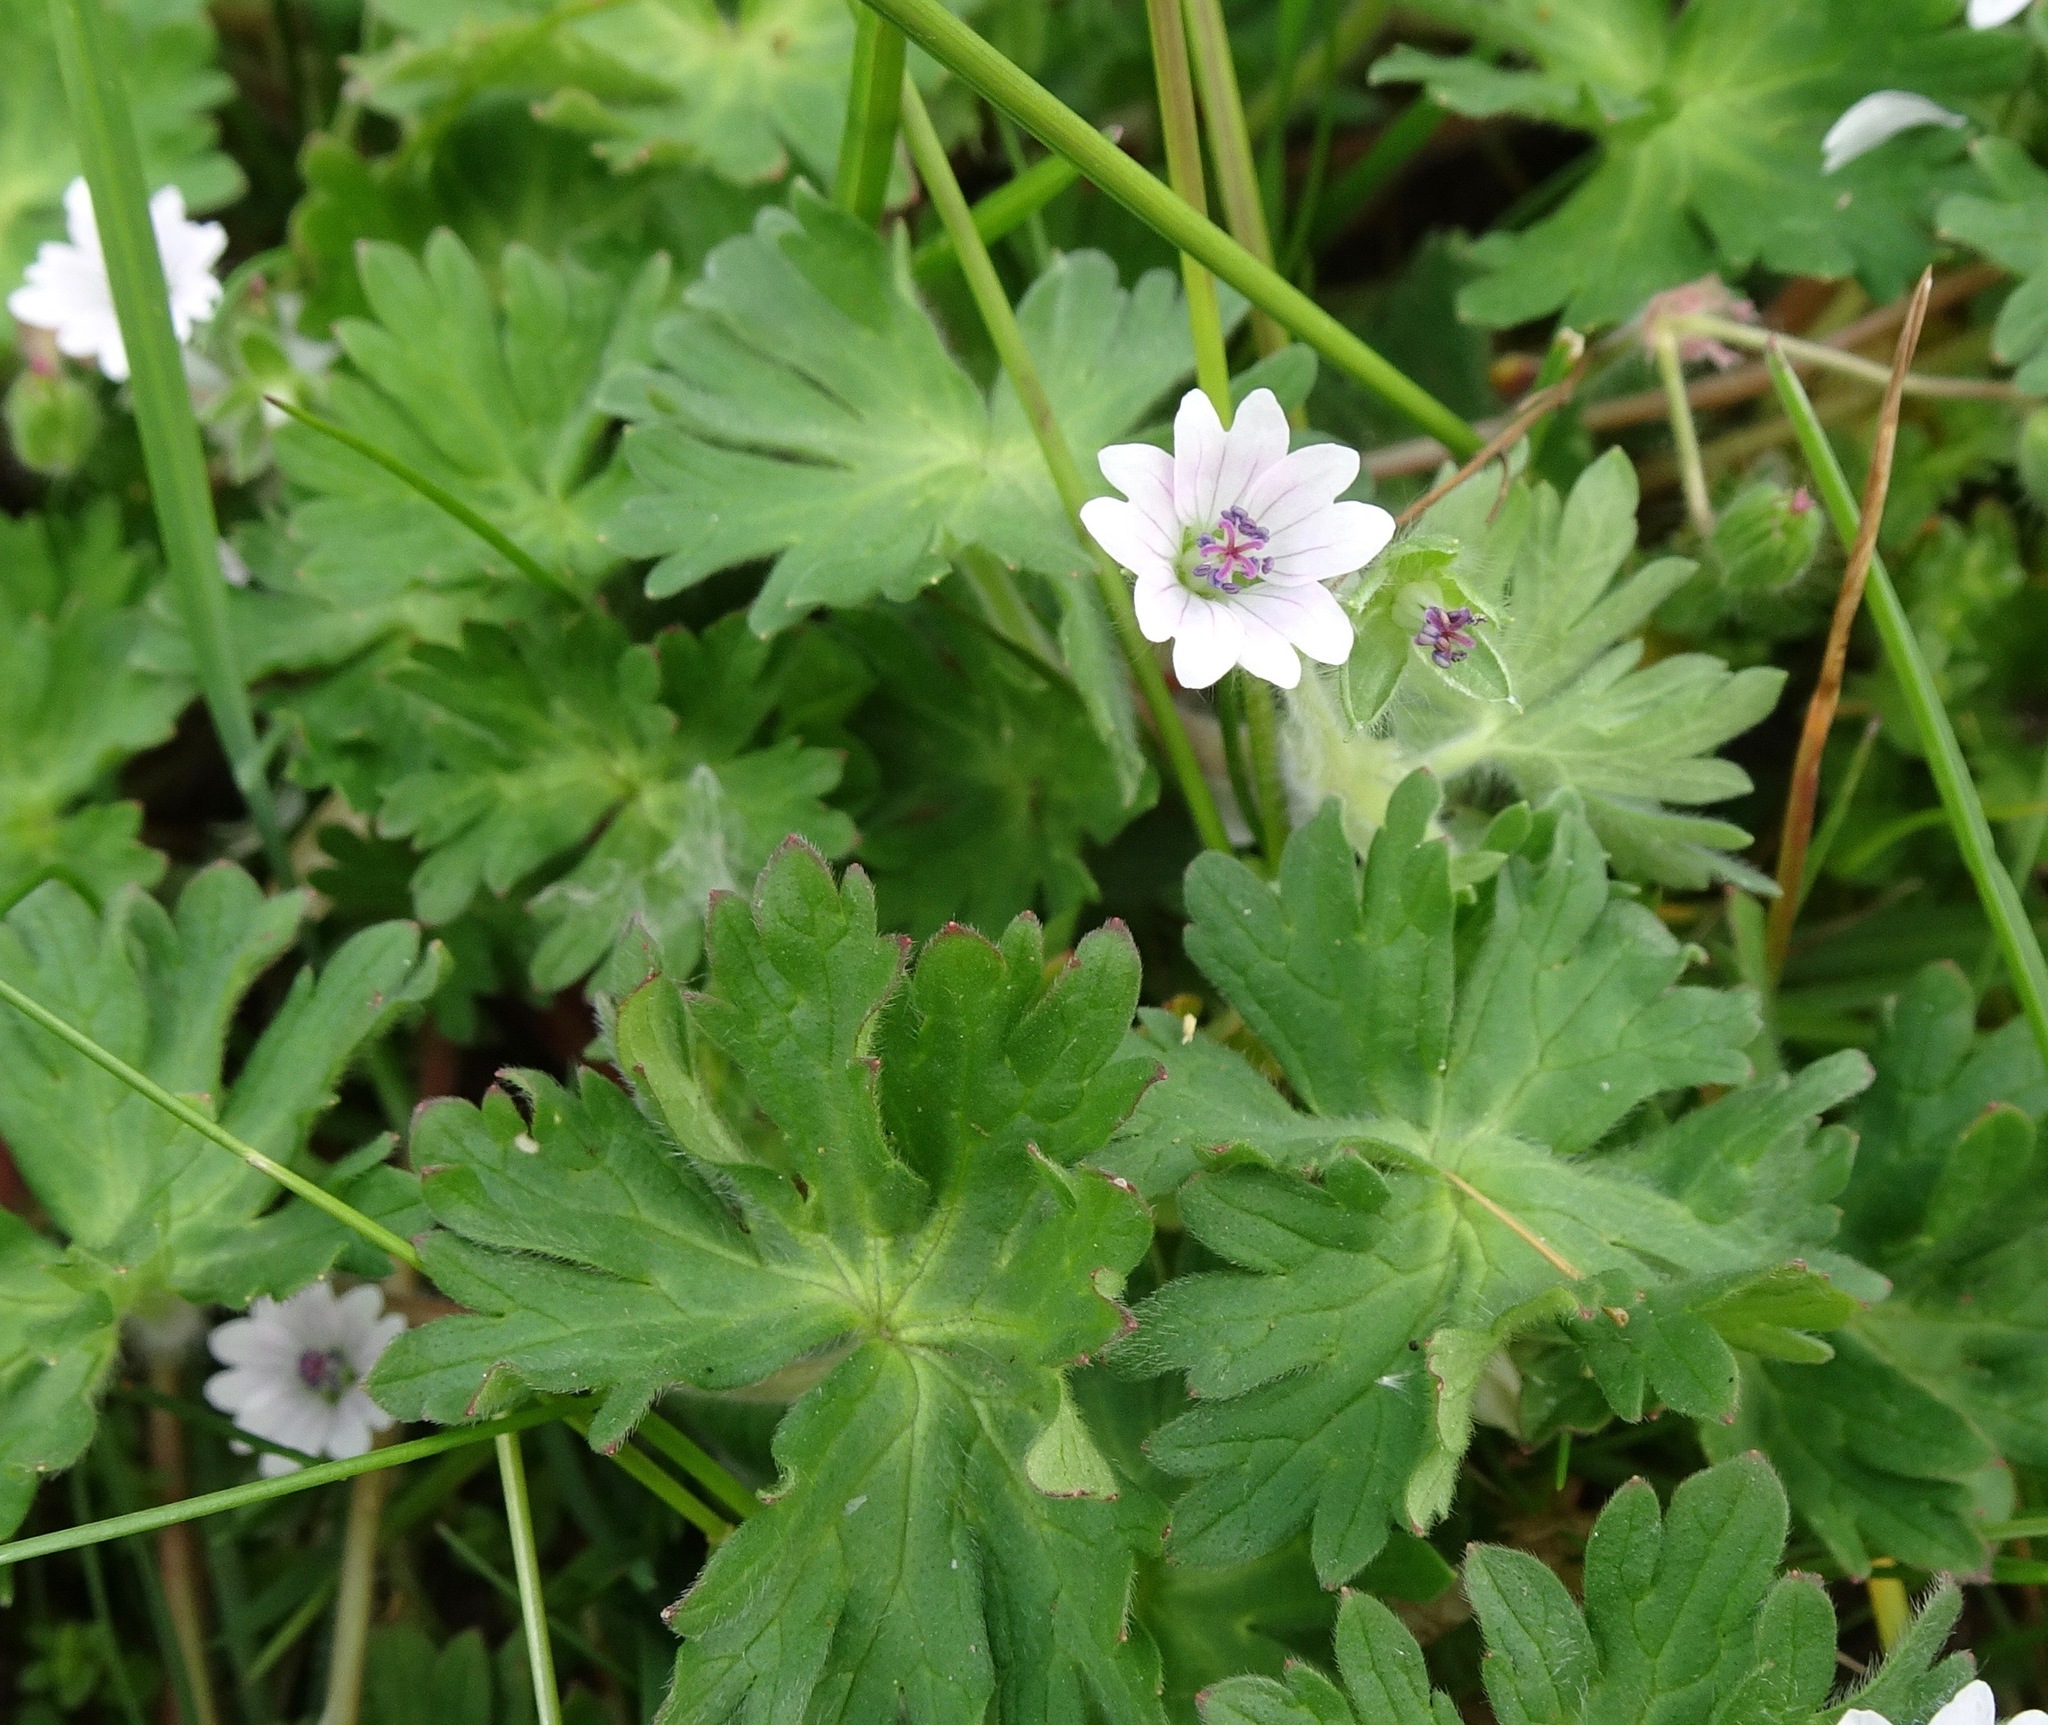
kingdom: Plantae
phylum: Tracheophyta
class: Magnoliopsida
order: Geraniales
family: Geraniaceae
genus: Geranium
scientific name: Geranium molle
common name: Dove's-foot crane's-bill
